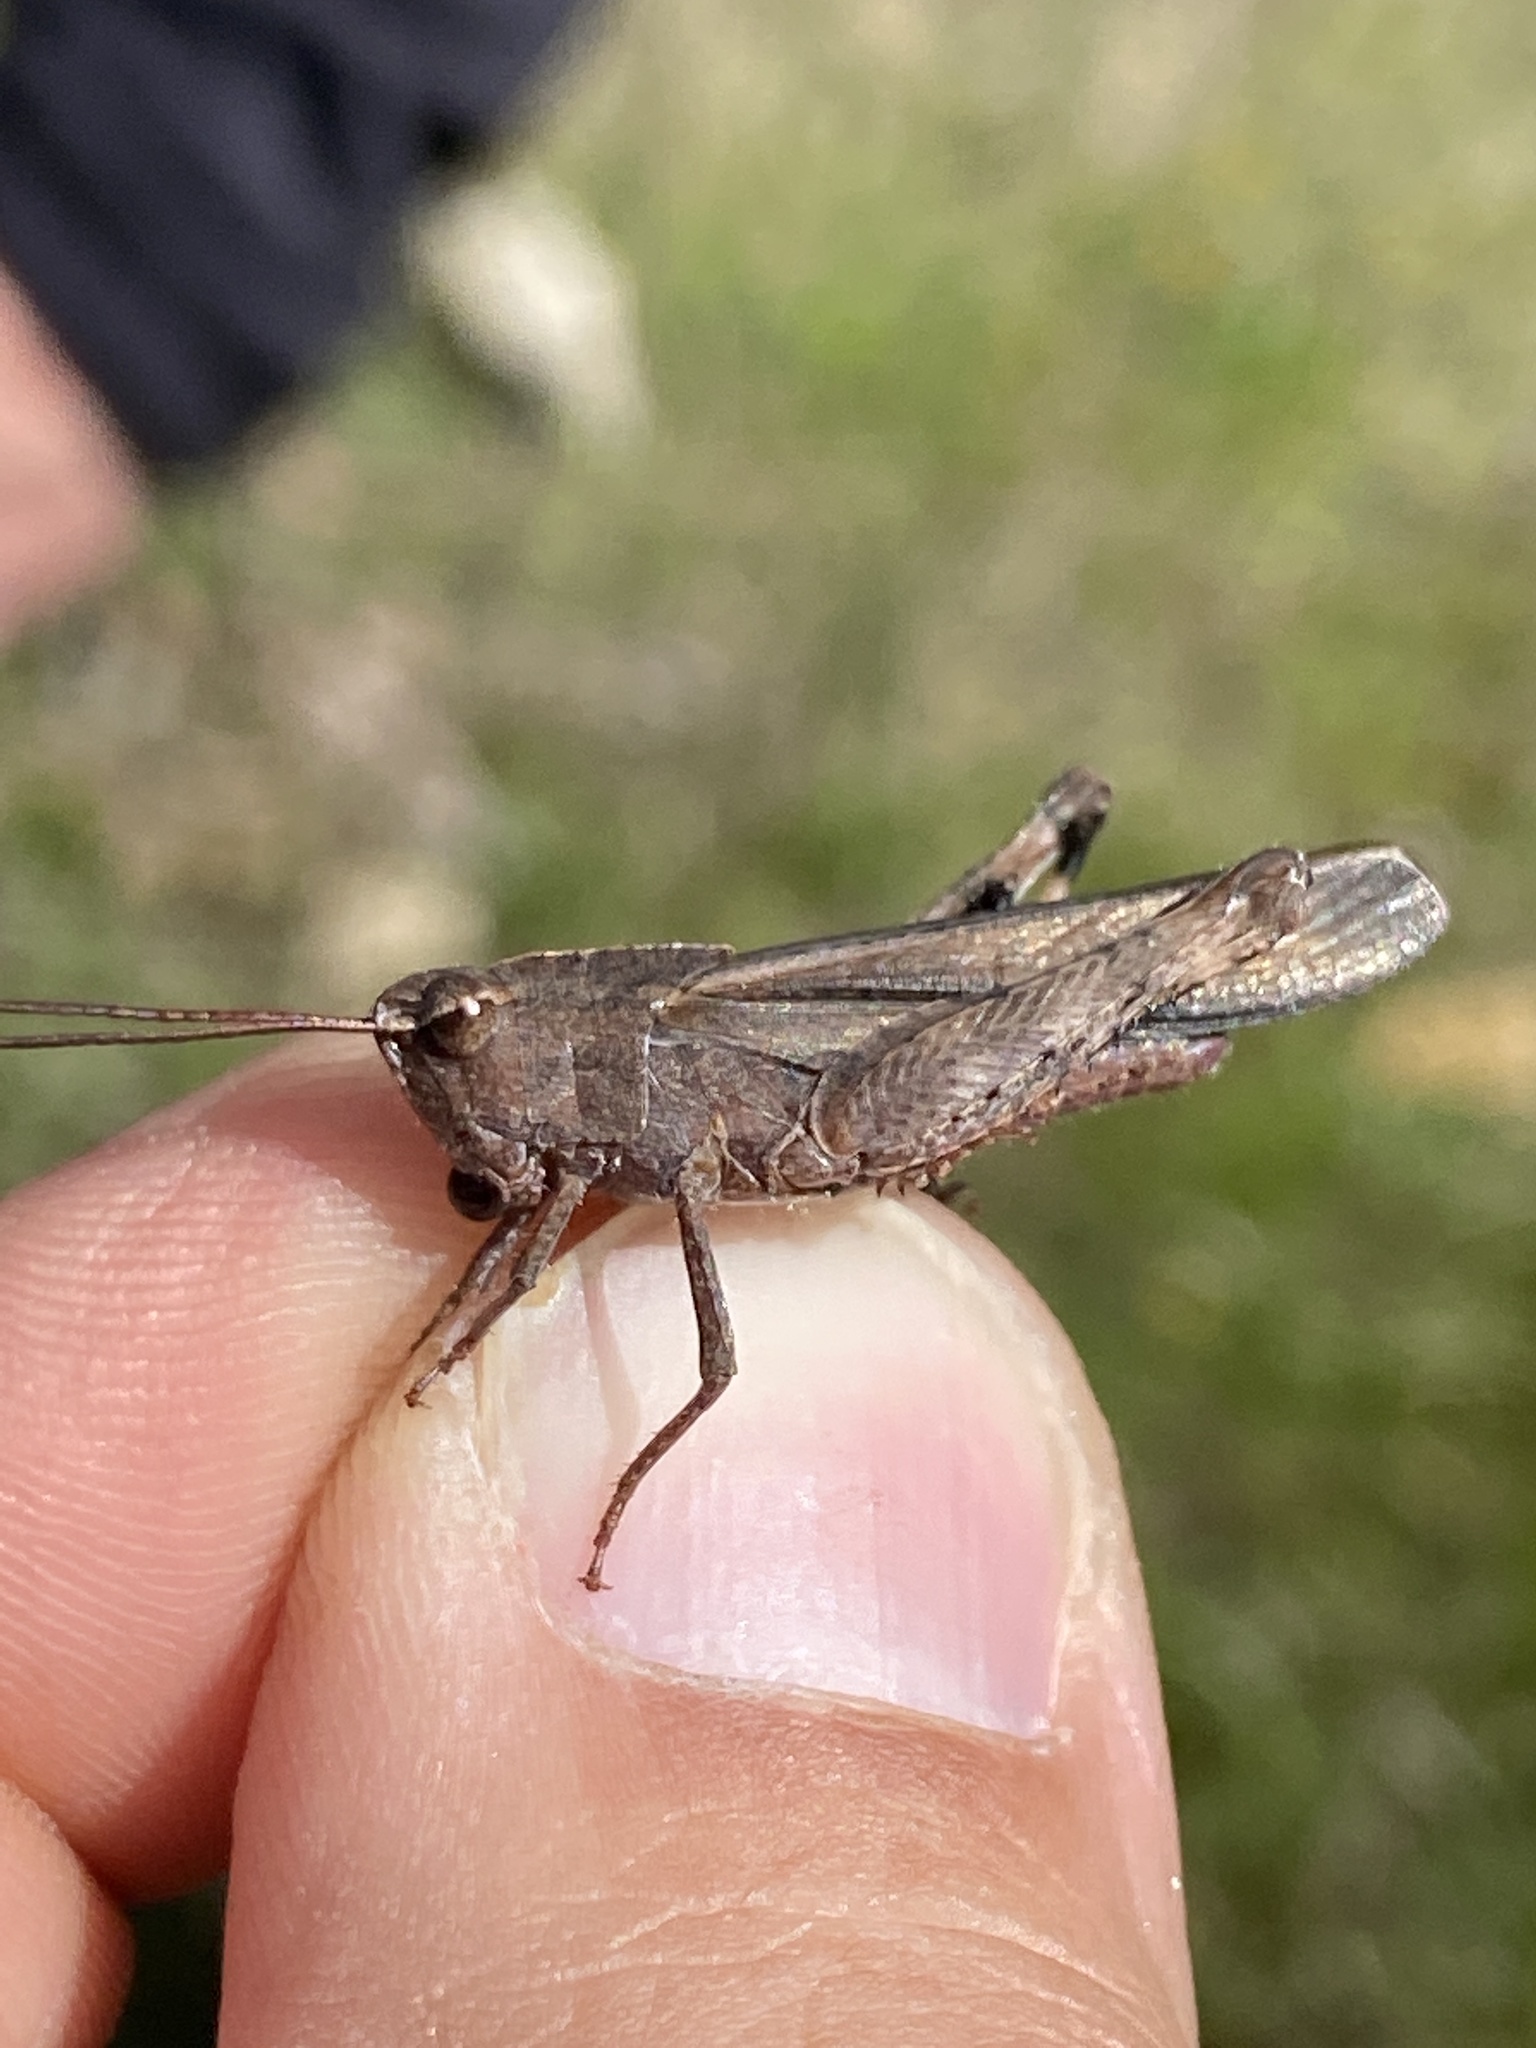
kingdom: Animalia
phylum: Arthropoda
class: Insecta
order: Orthoptera
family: Acrididae
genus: Chortophaga
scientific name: Chortophaga viridifasciata
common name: Green-striped grasshopper
